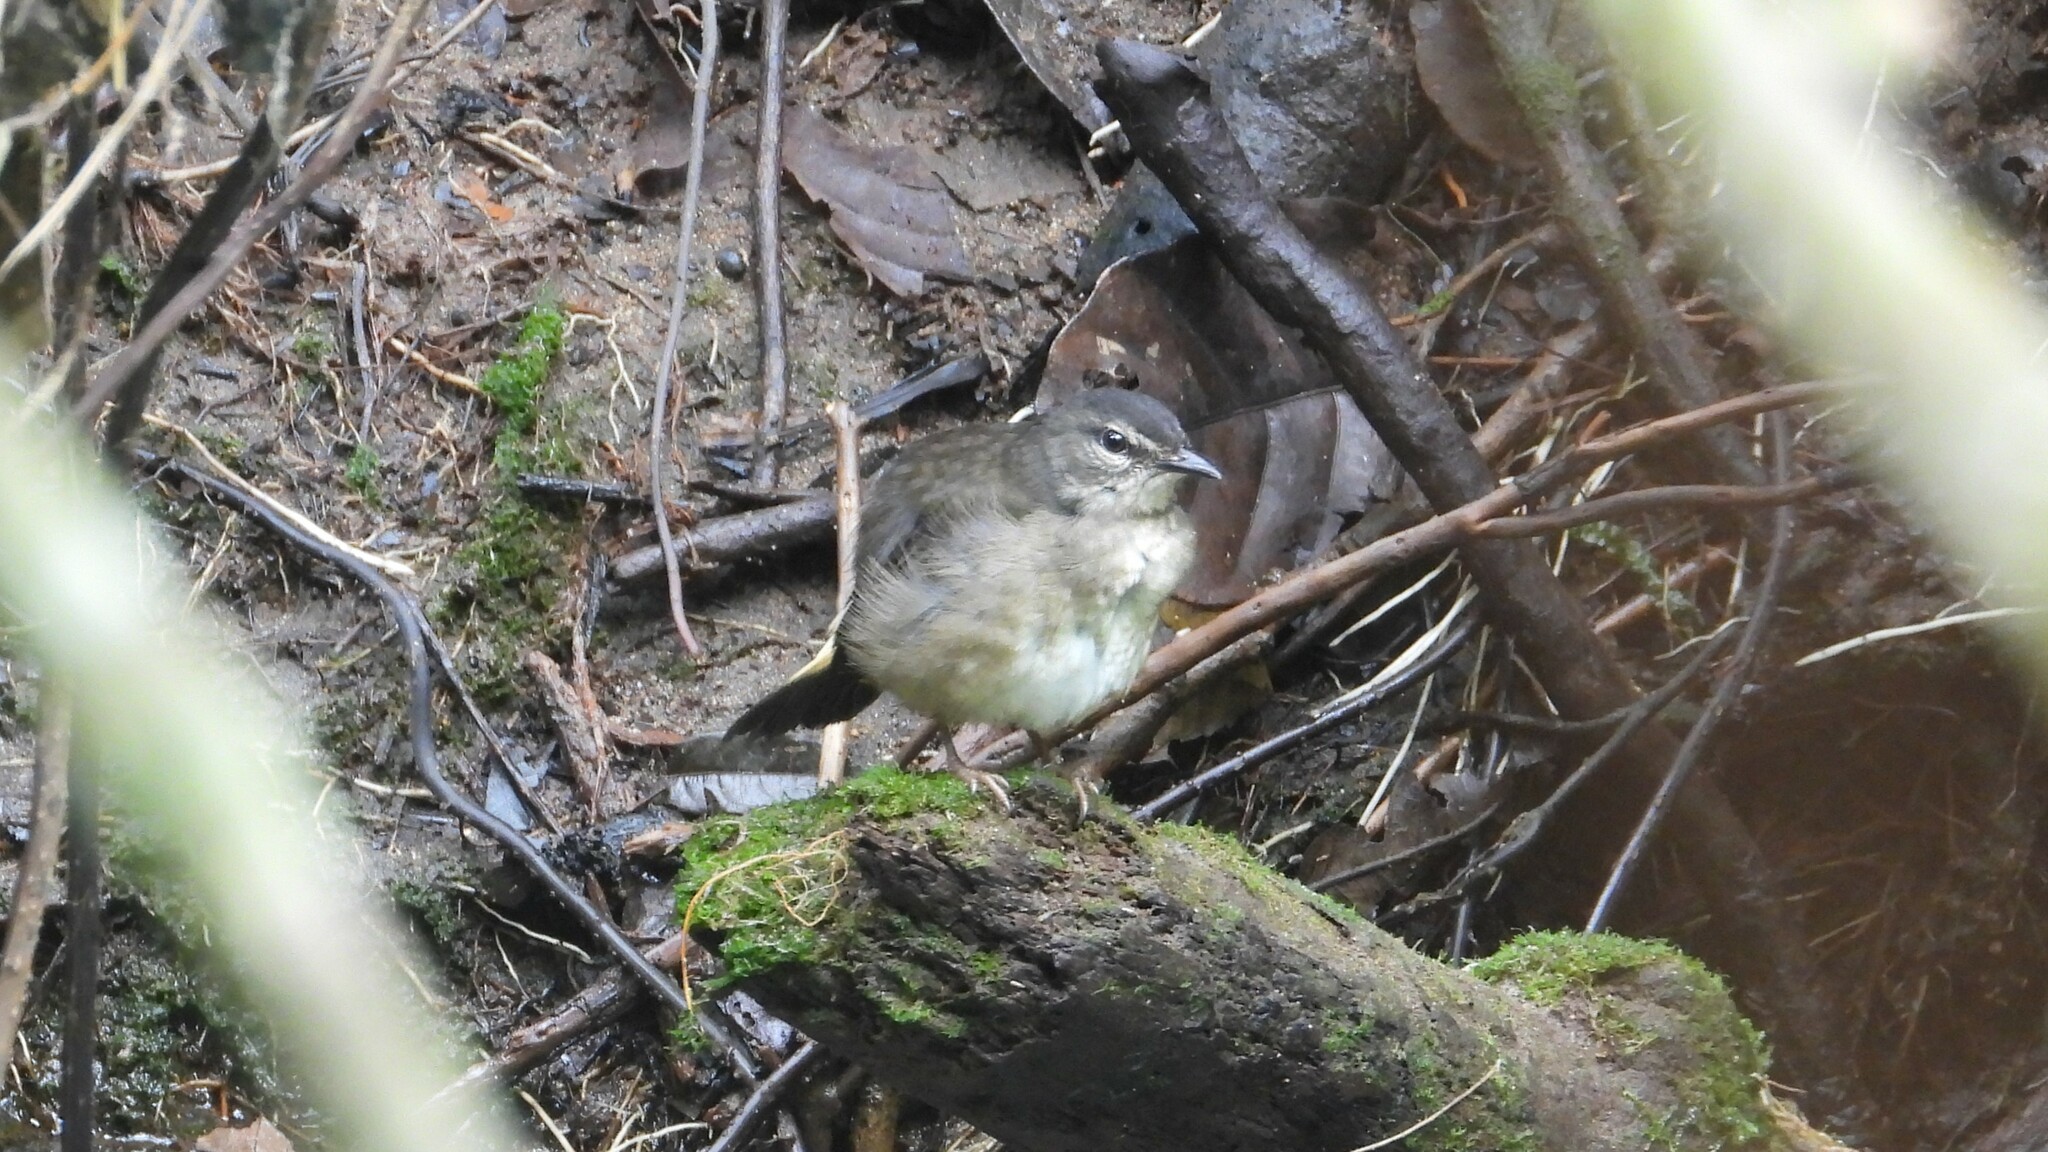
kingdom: Animalia
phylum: Chordata
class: Aves
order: Passeriformes
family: Parulidae
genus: Myiothlypis
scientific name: Myiothlypis fulvicauda
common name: Buff-rumped warbler
